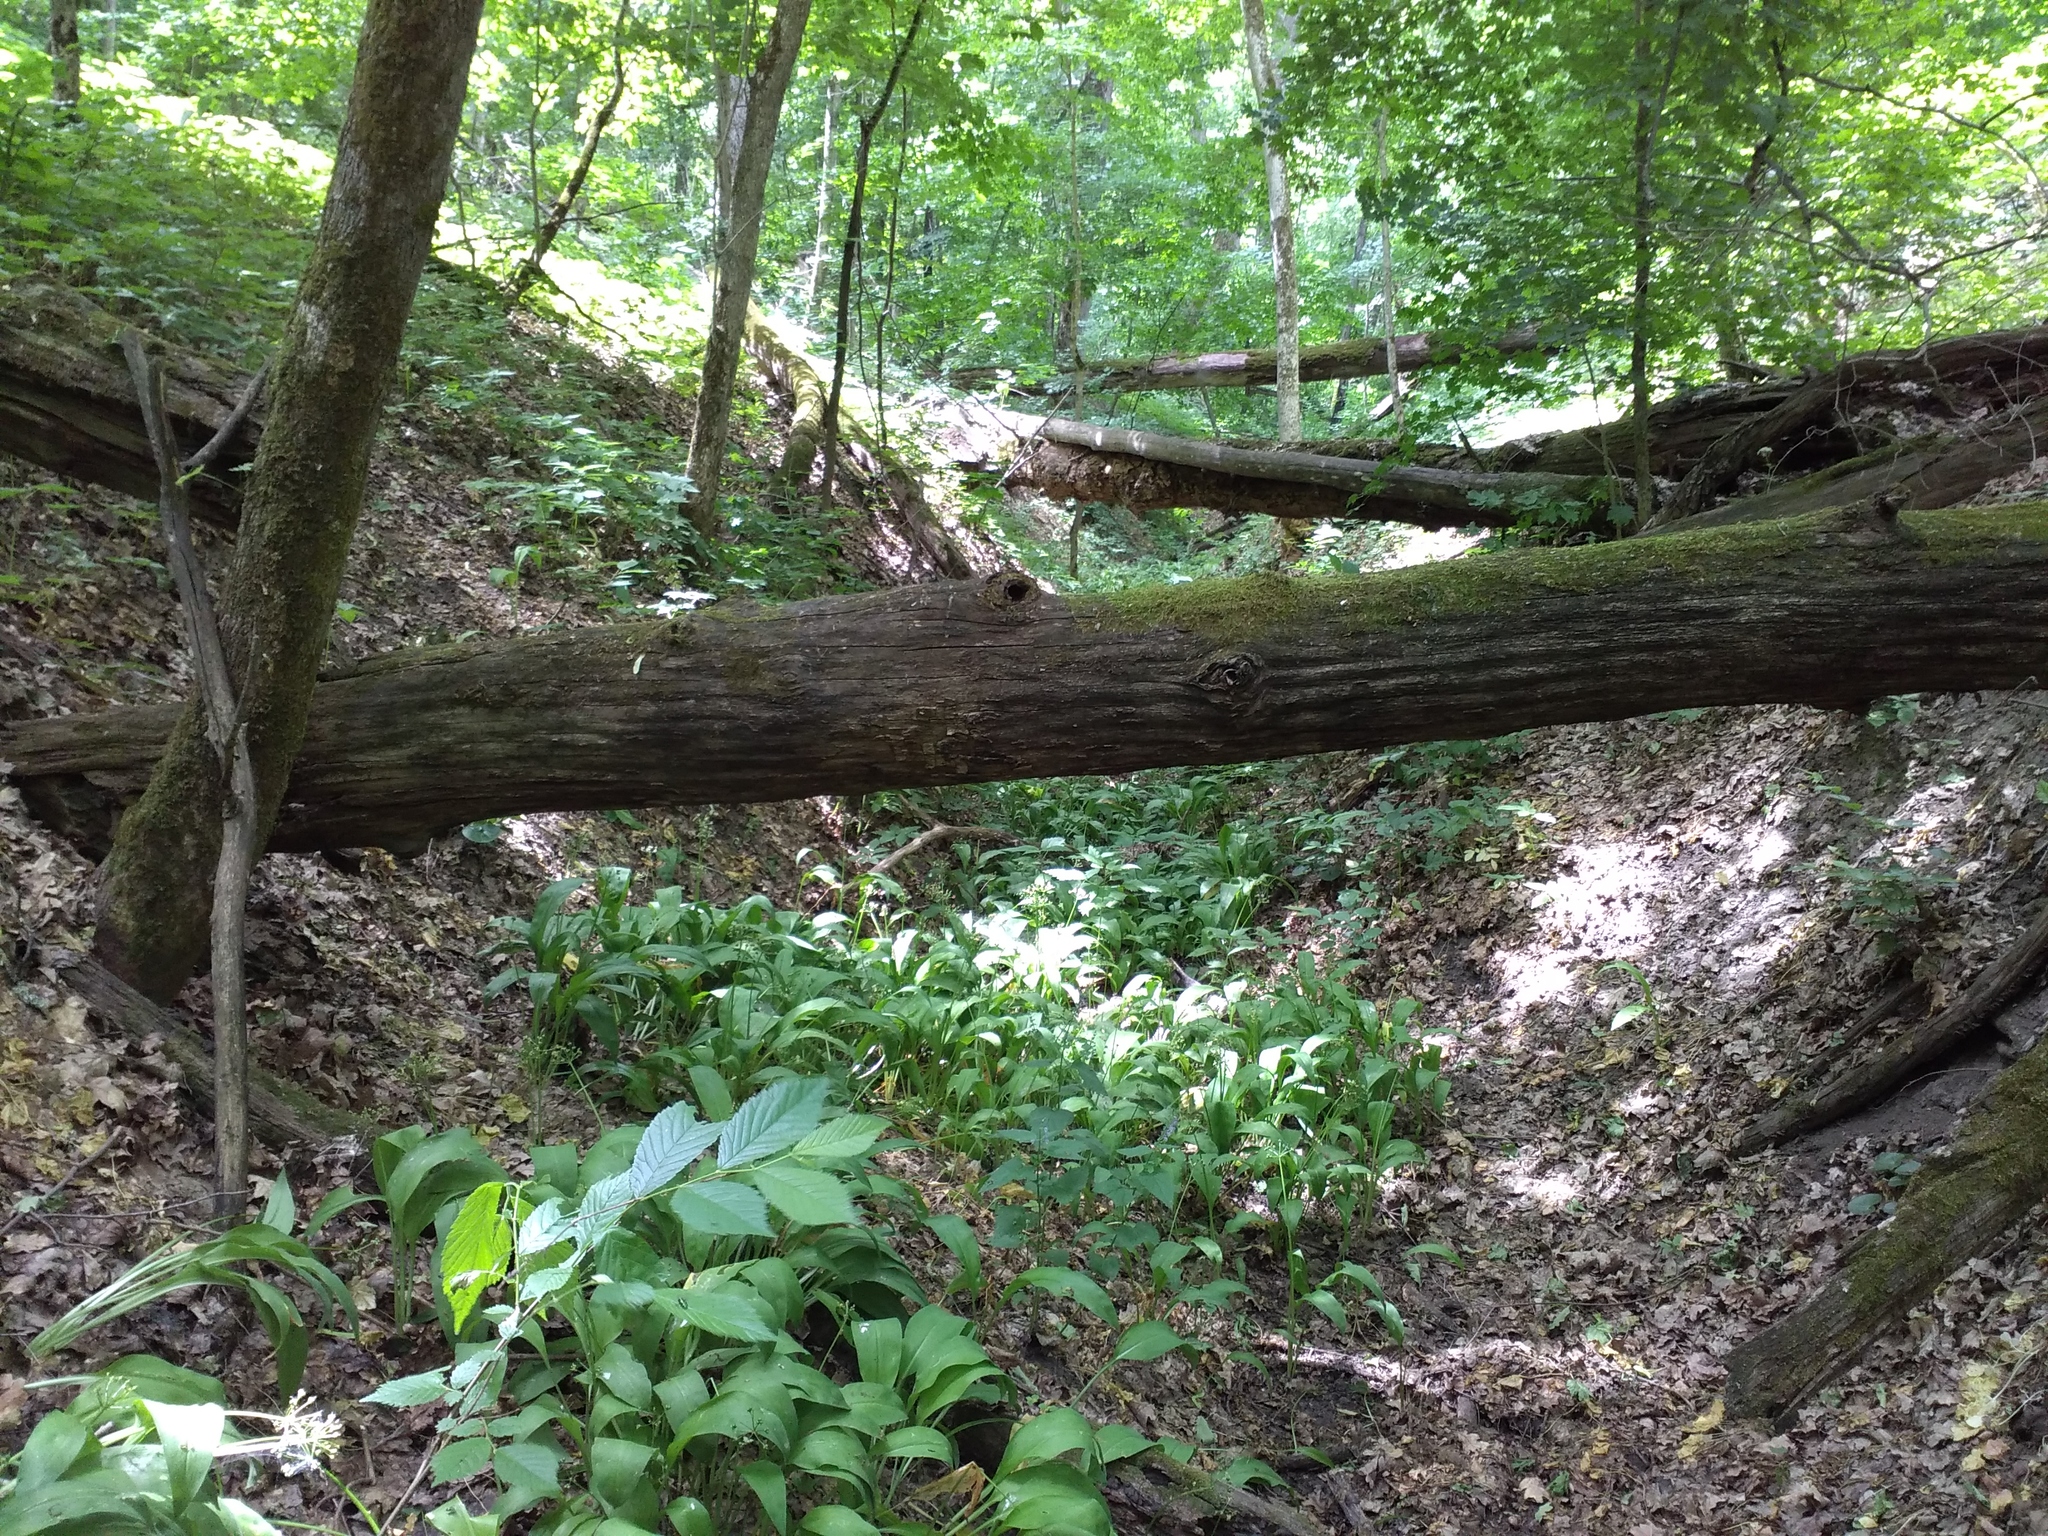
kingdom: Plantae
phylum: Tracheophyta
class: Liliopsida
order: Asparagales
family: Amaryllidaceae
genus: Allium
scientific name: Allium ursinum
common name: Ramsons
